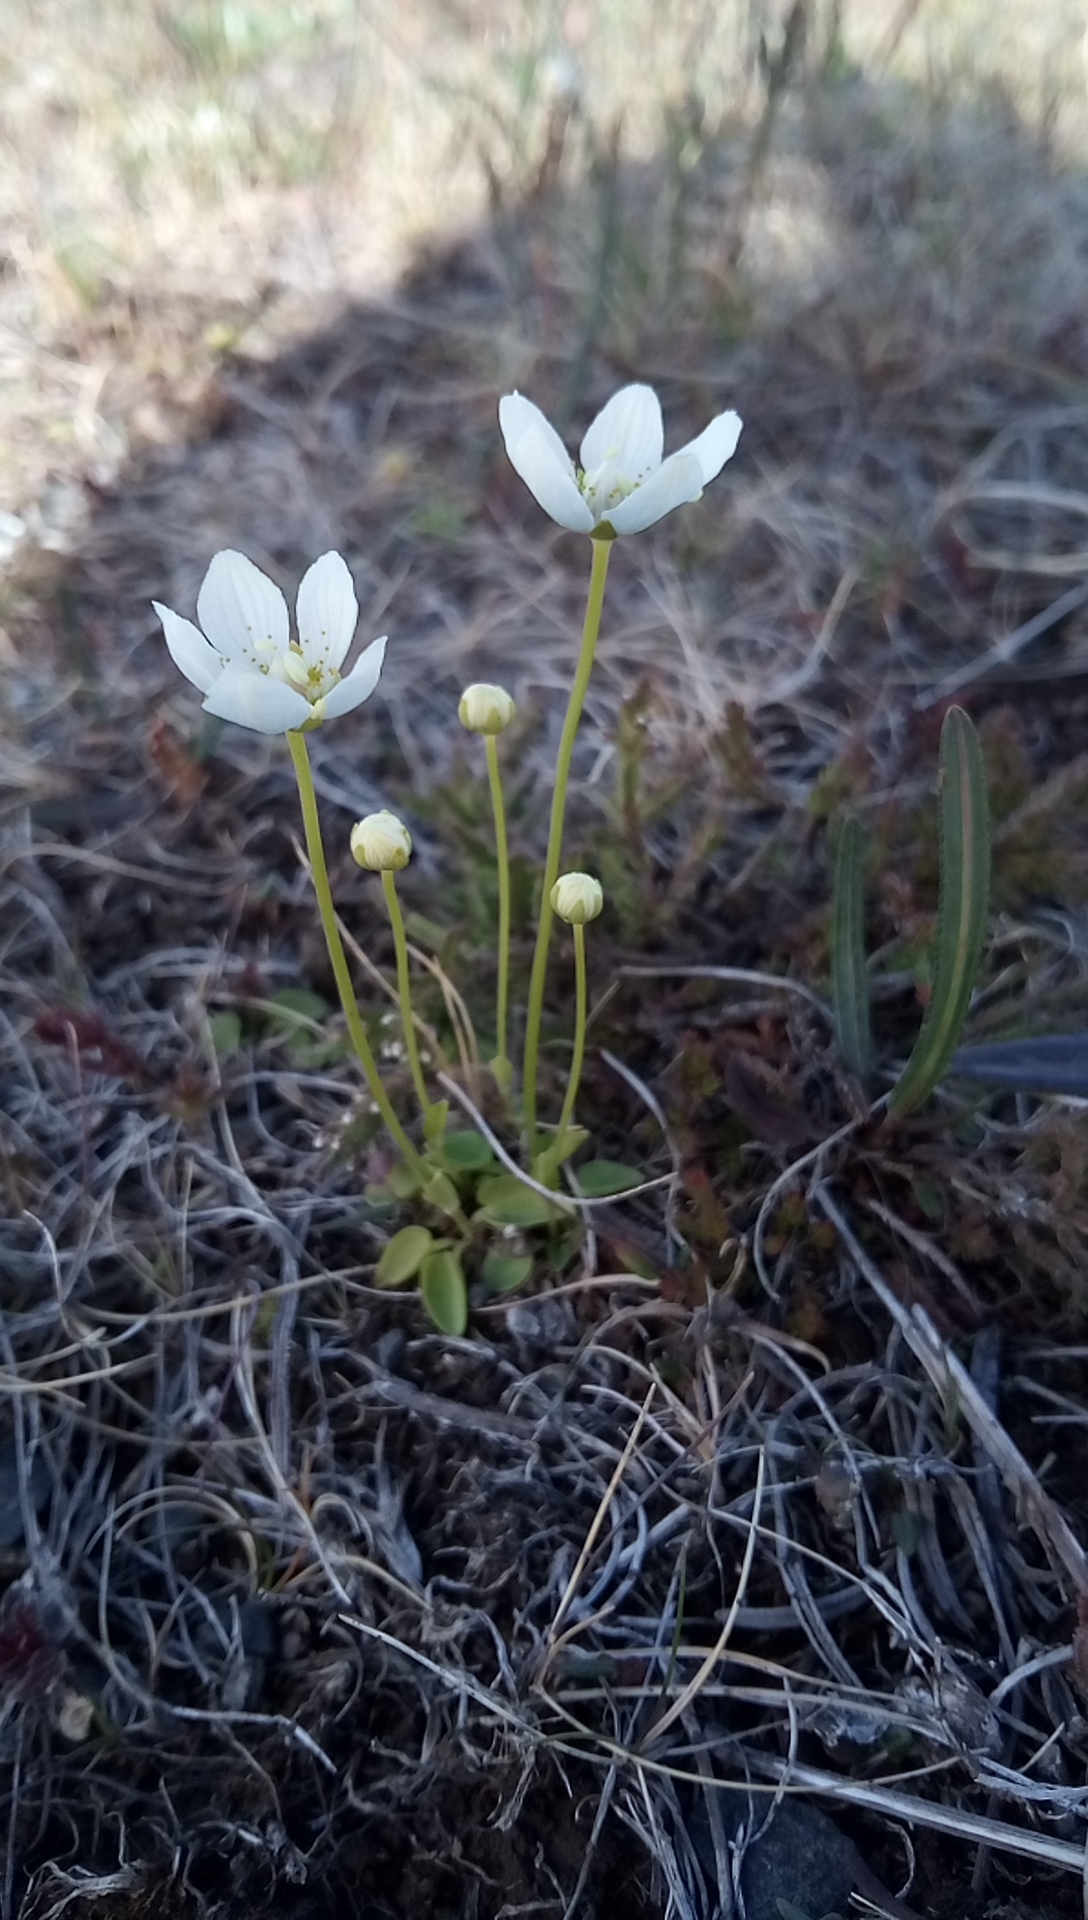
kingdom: Plantae
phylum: Tracheophyta
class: Magnoliopsida
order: Celastrales
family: Parnassiaceae
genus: Parnassia
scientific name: Parnassia palustris
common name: Grass-of-parnassus
